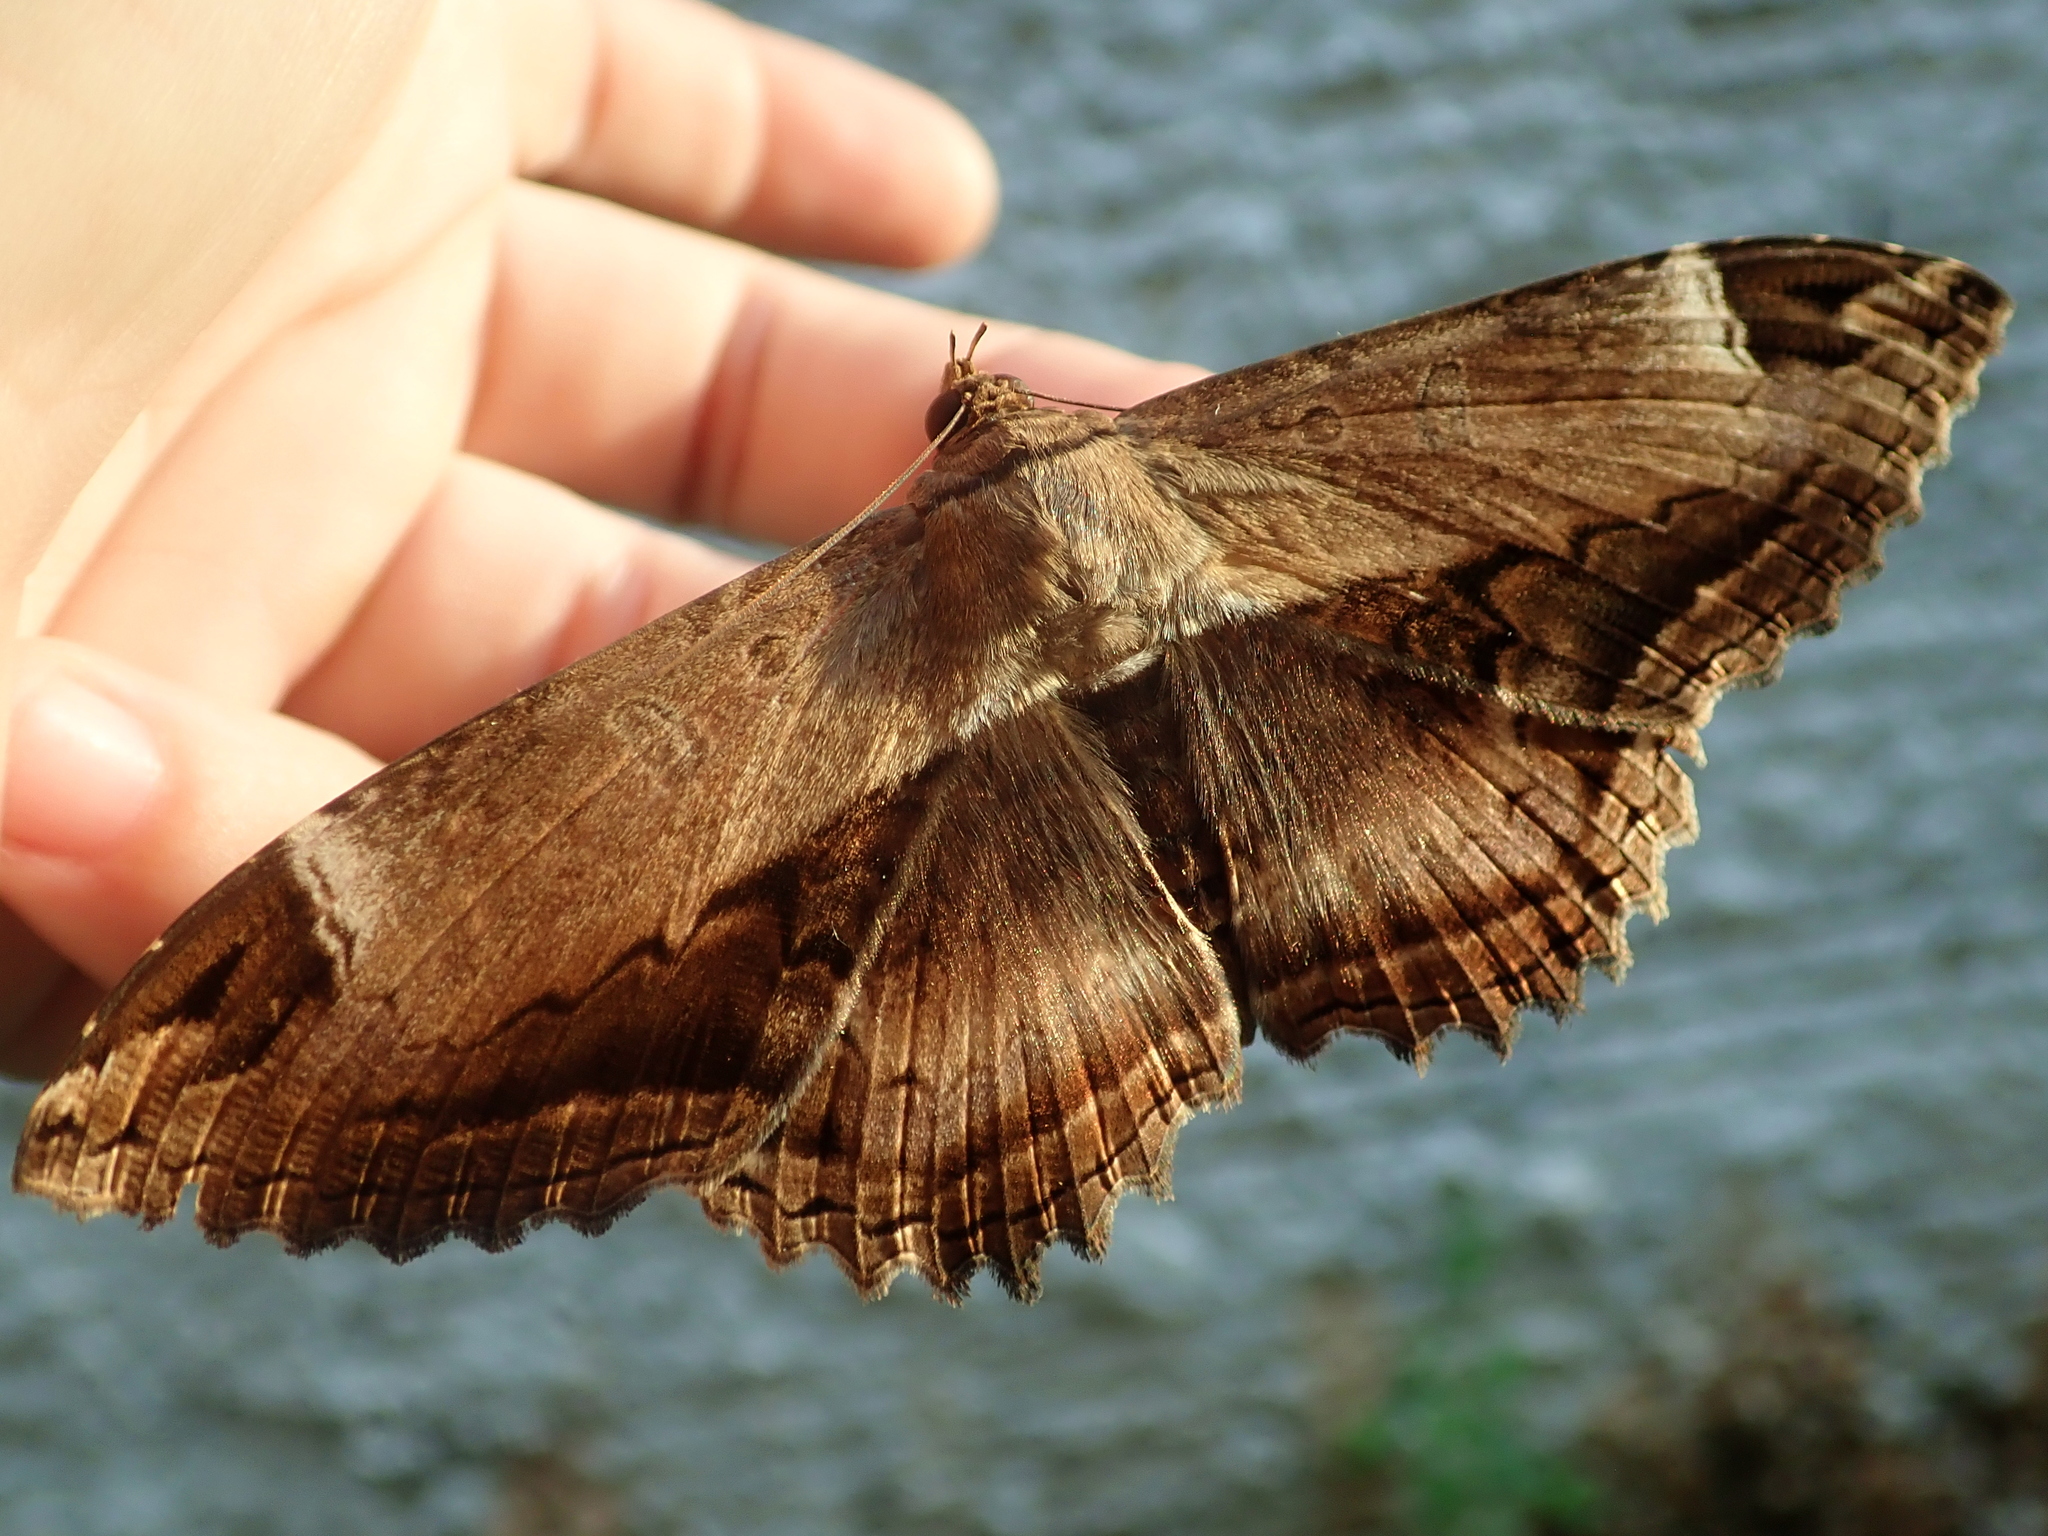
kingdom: Animalia
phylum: Arthropoda
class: Insecta
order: Lepidoptera
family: Noctuidae
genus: Ronania
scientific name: Ronania
